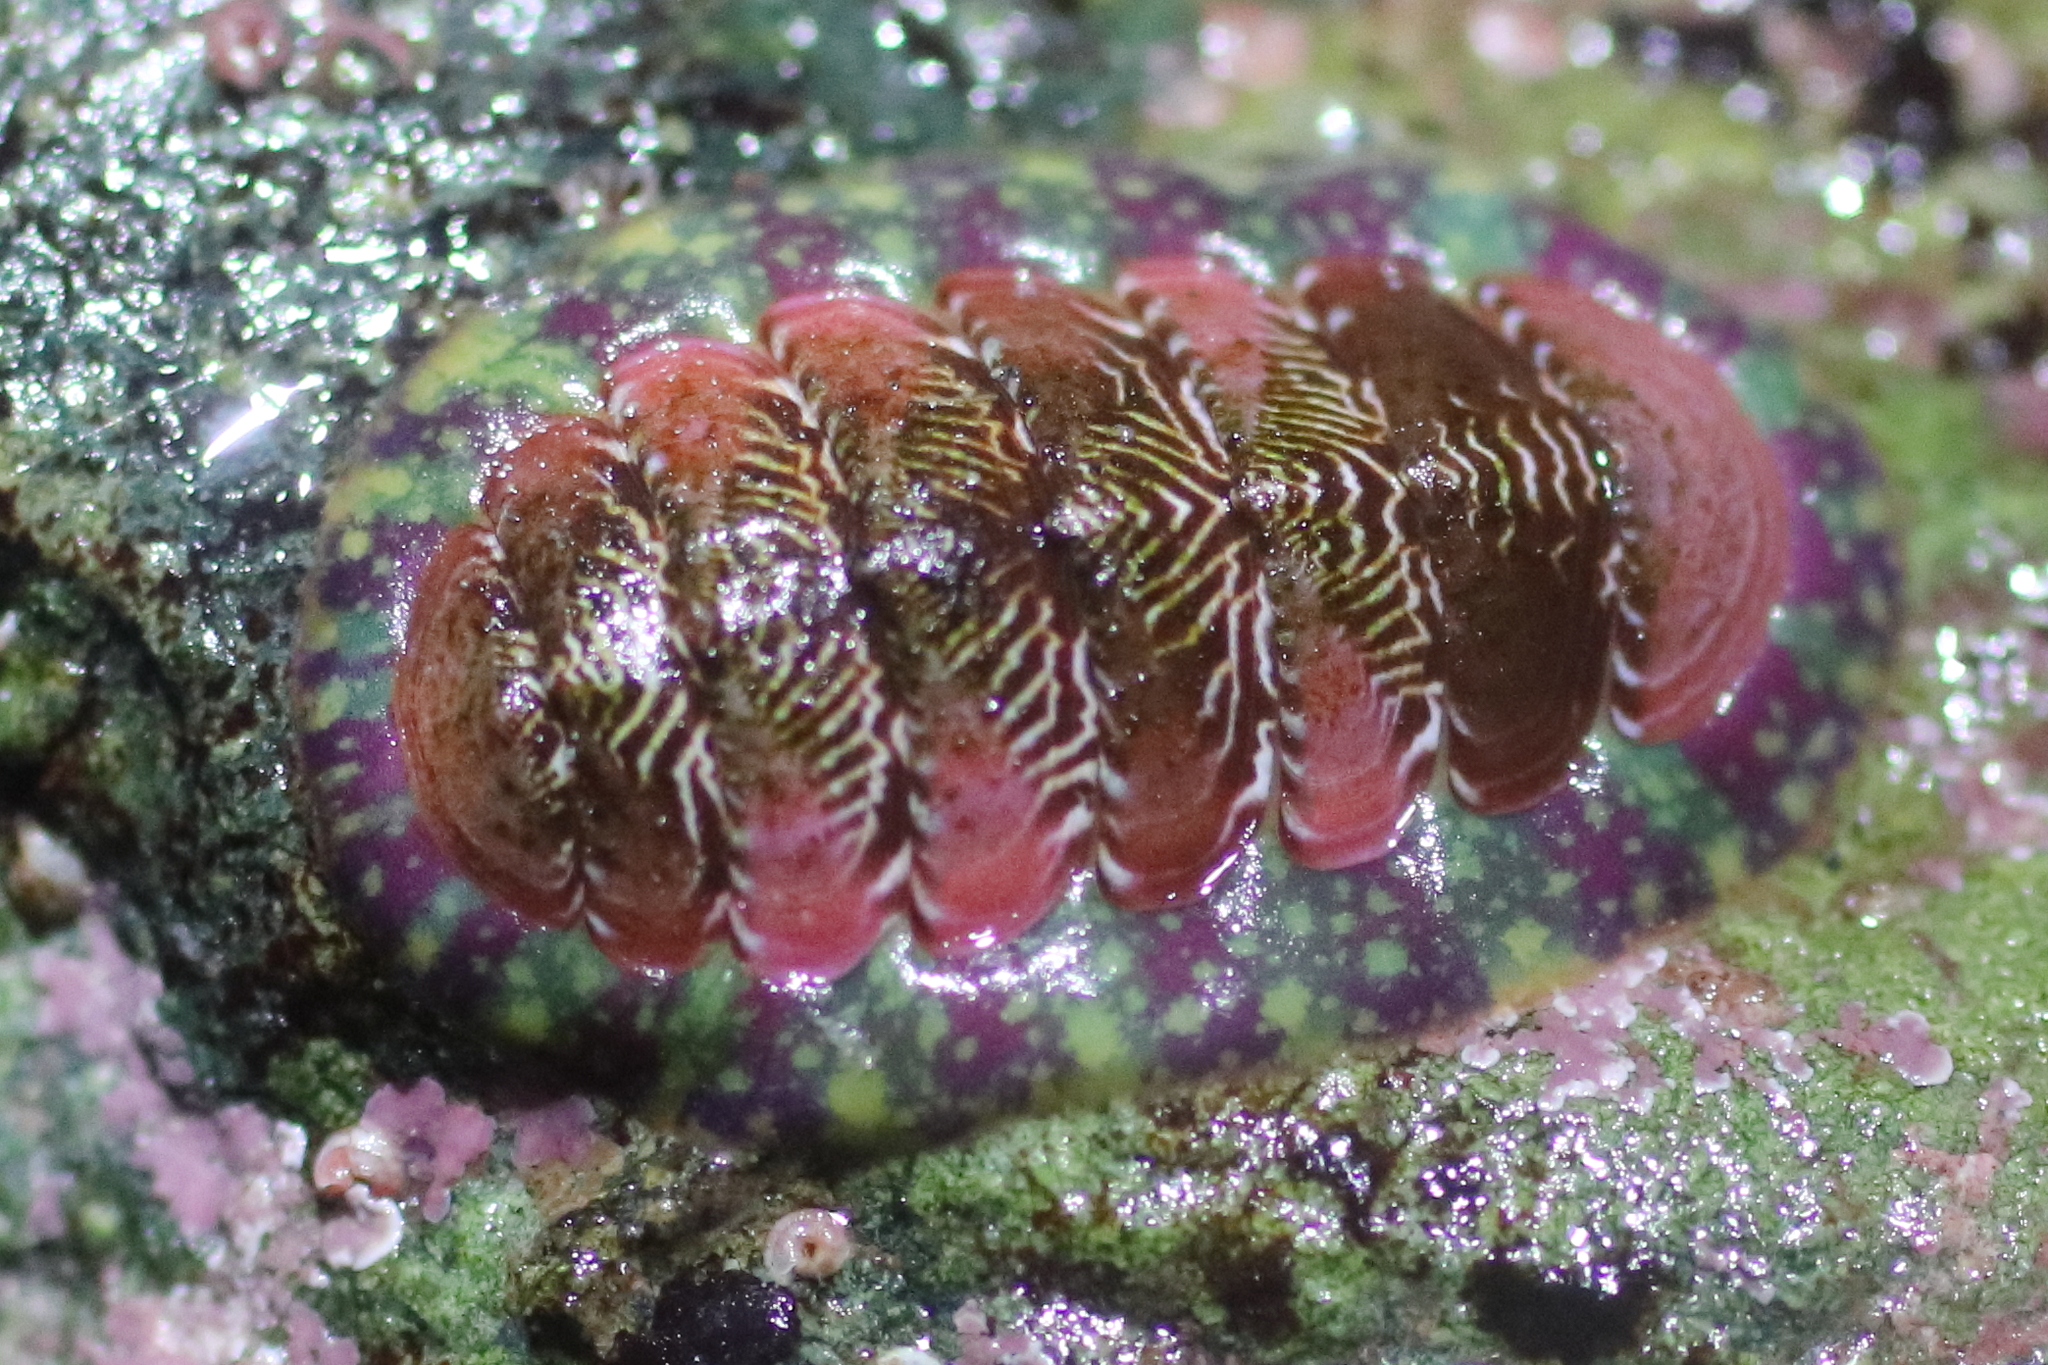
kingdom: Animalia
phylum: Mollusca
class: Polyplacophora
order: Chitonida
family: Tonicellidae
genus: Tonicella
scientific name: Tonicella insignis
